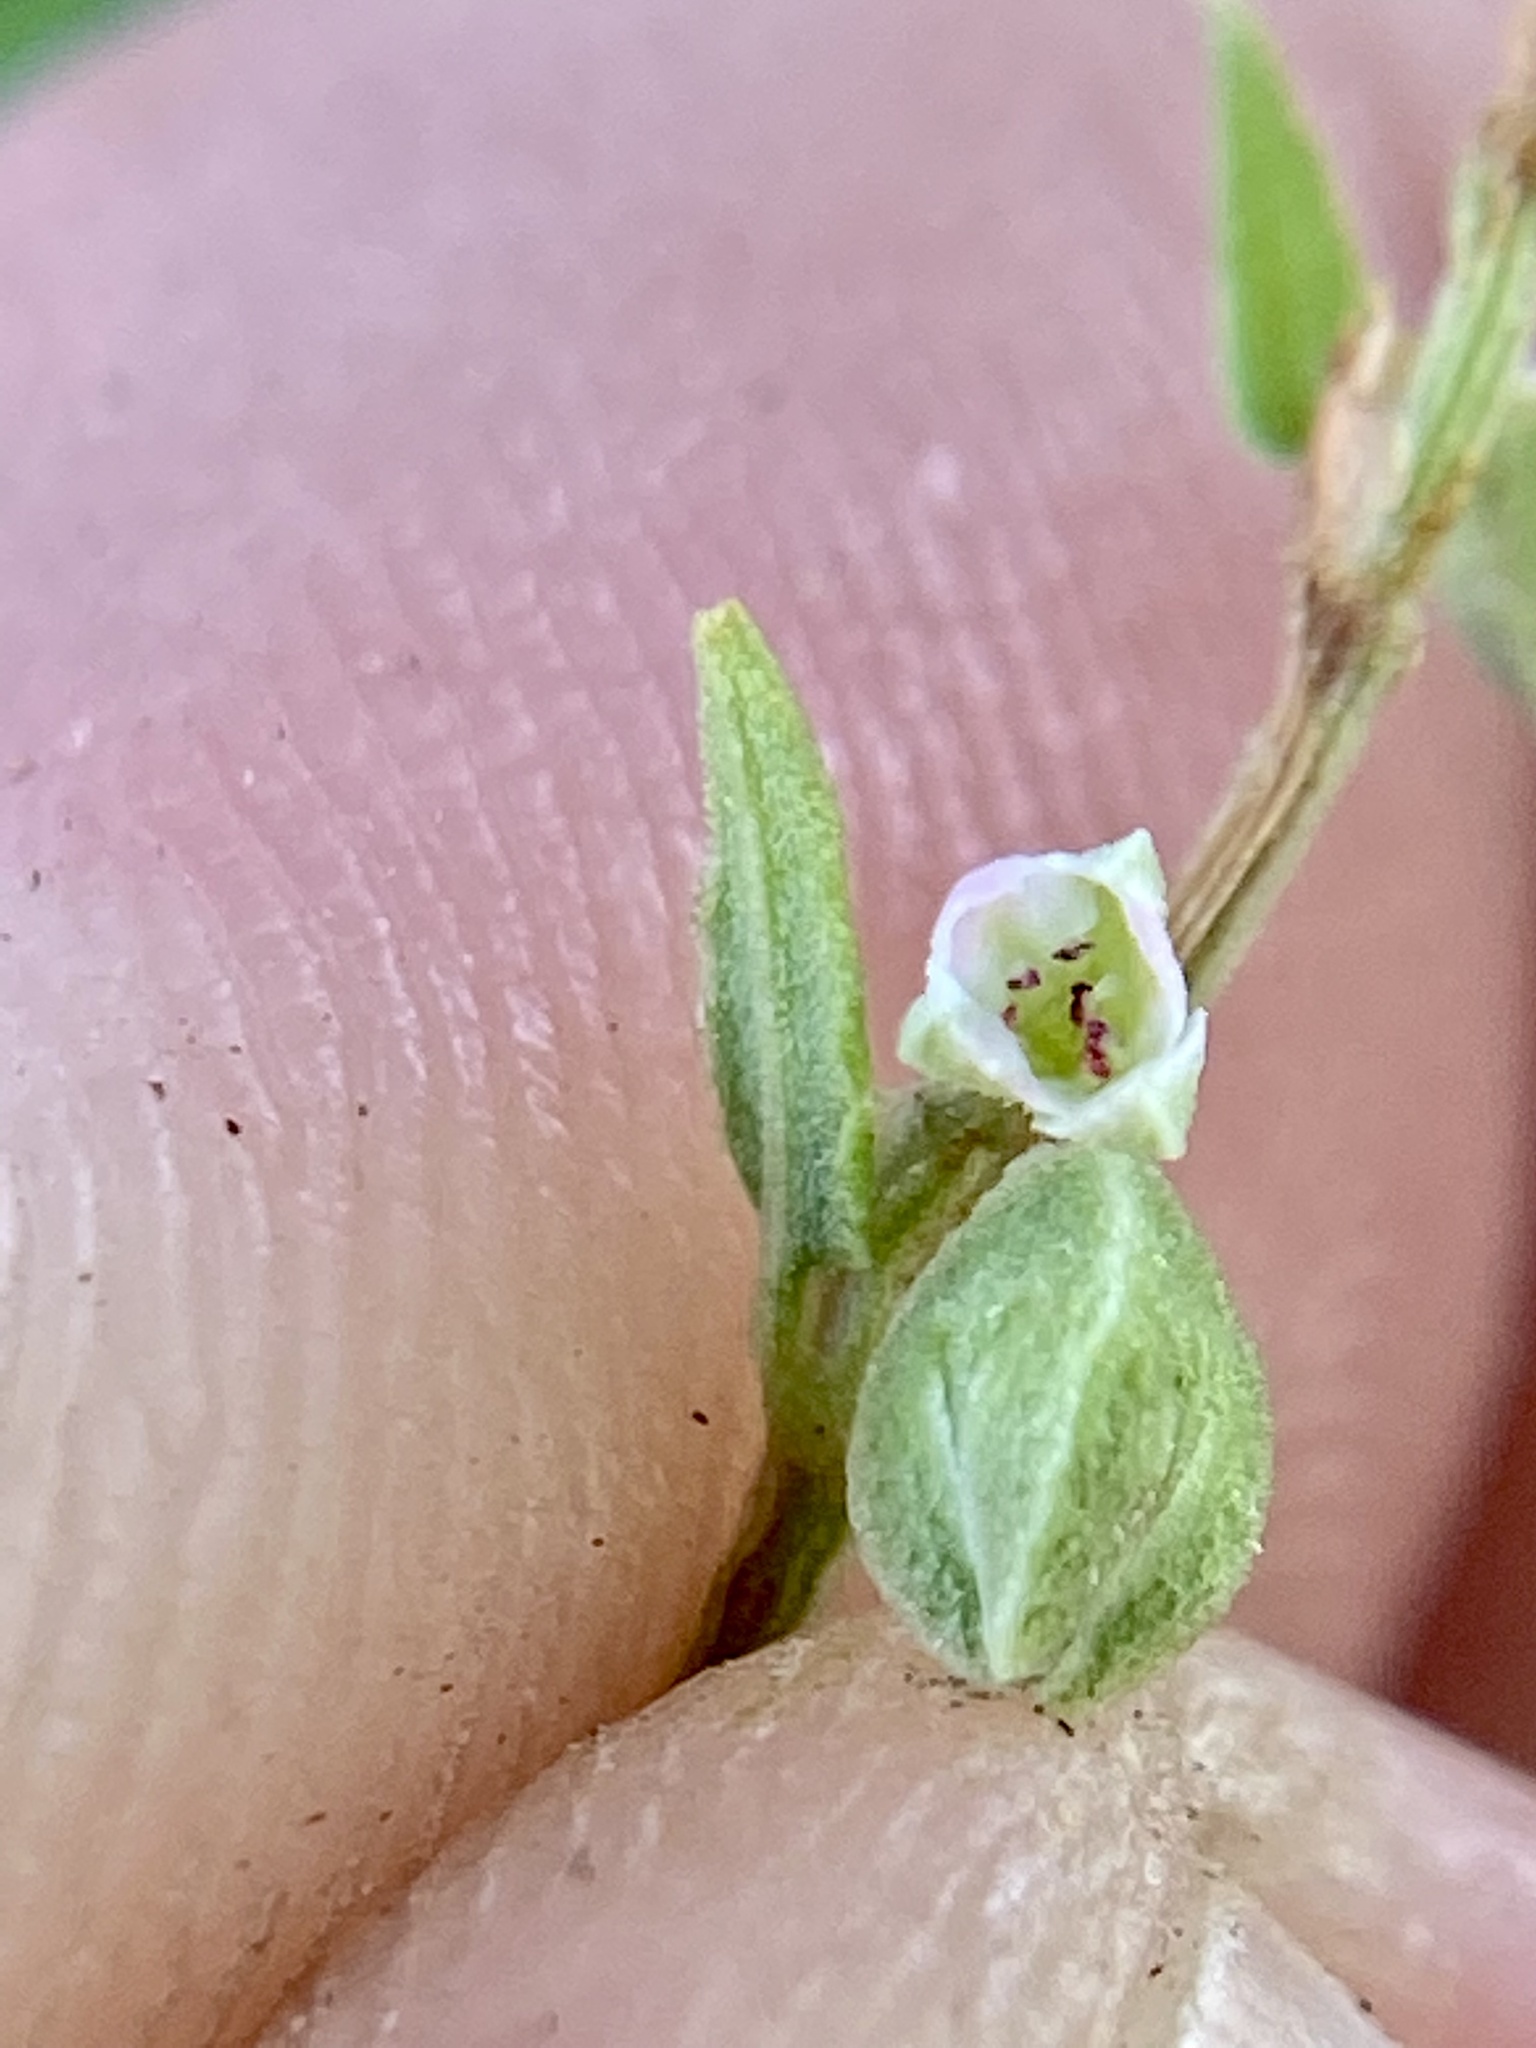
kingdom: Plantae
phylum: Tracheophyta
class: Magnoliopsida
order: Caryophyllales
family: Polygonaceae
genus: Fallopia
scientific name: Fallopia convolvulus
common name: Black bindweed
